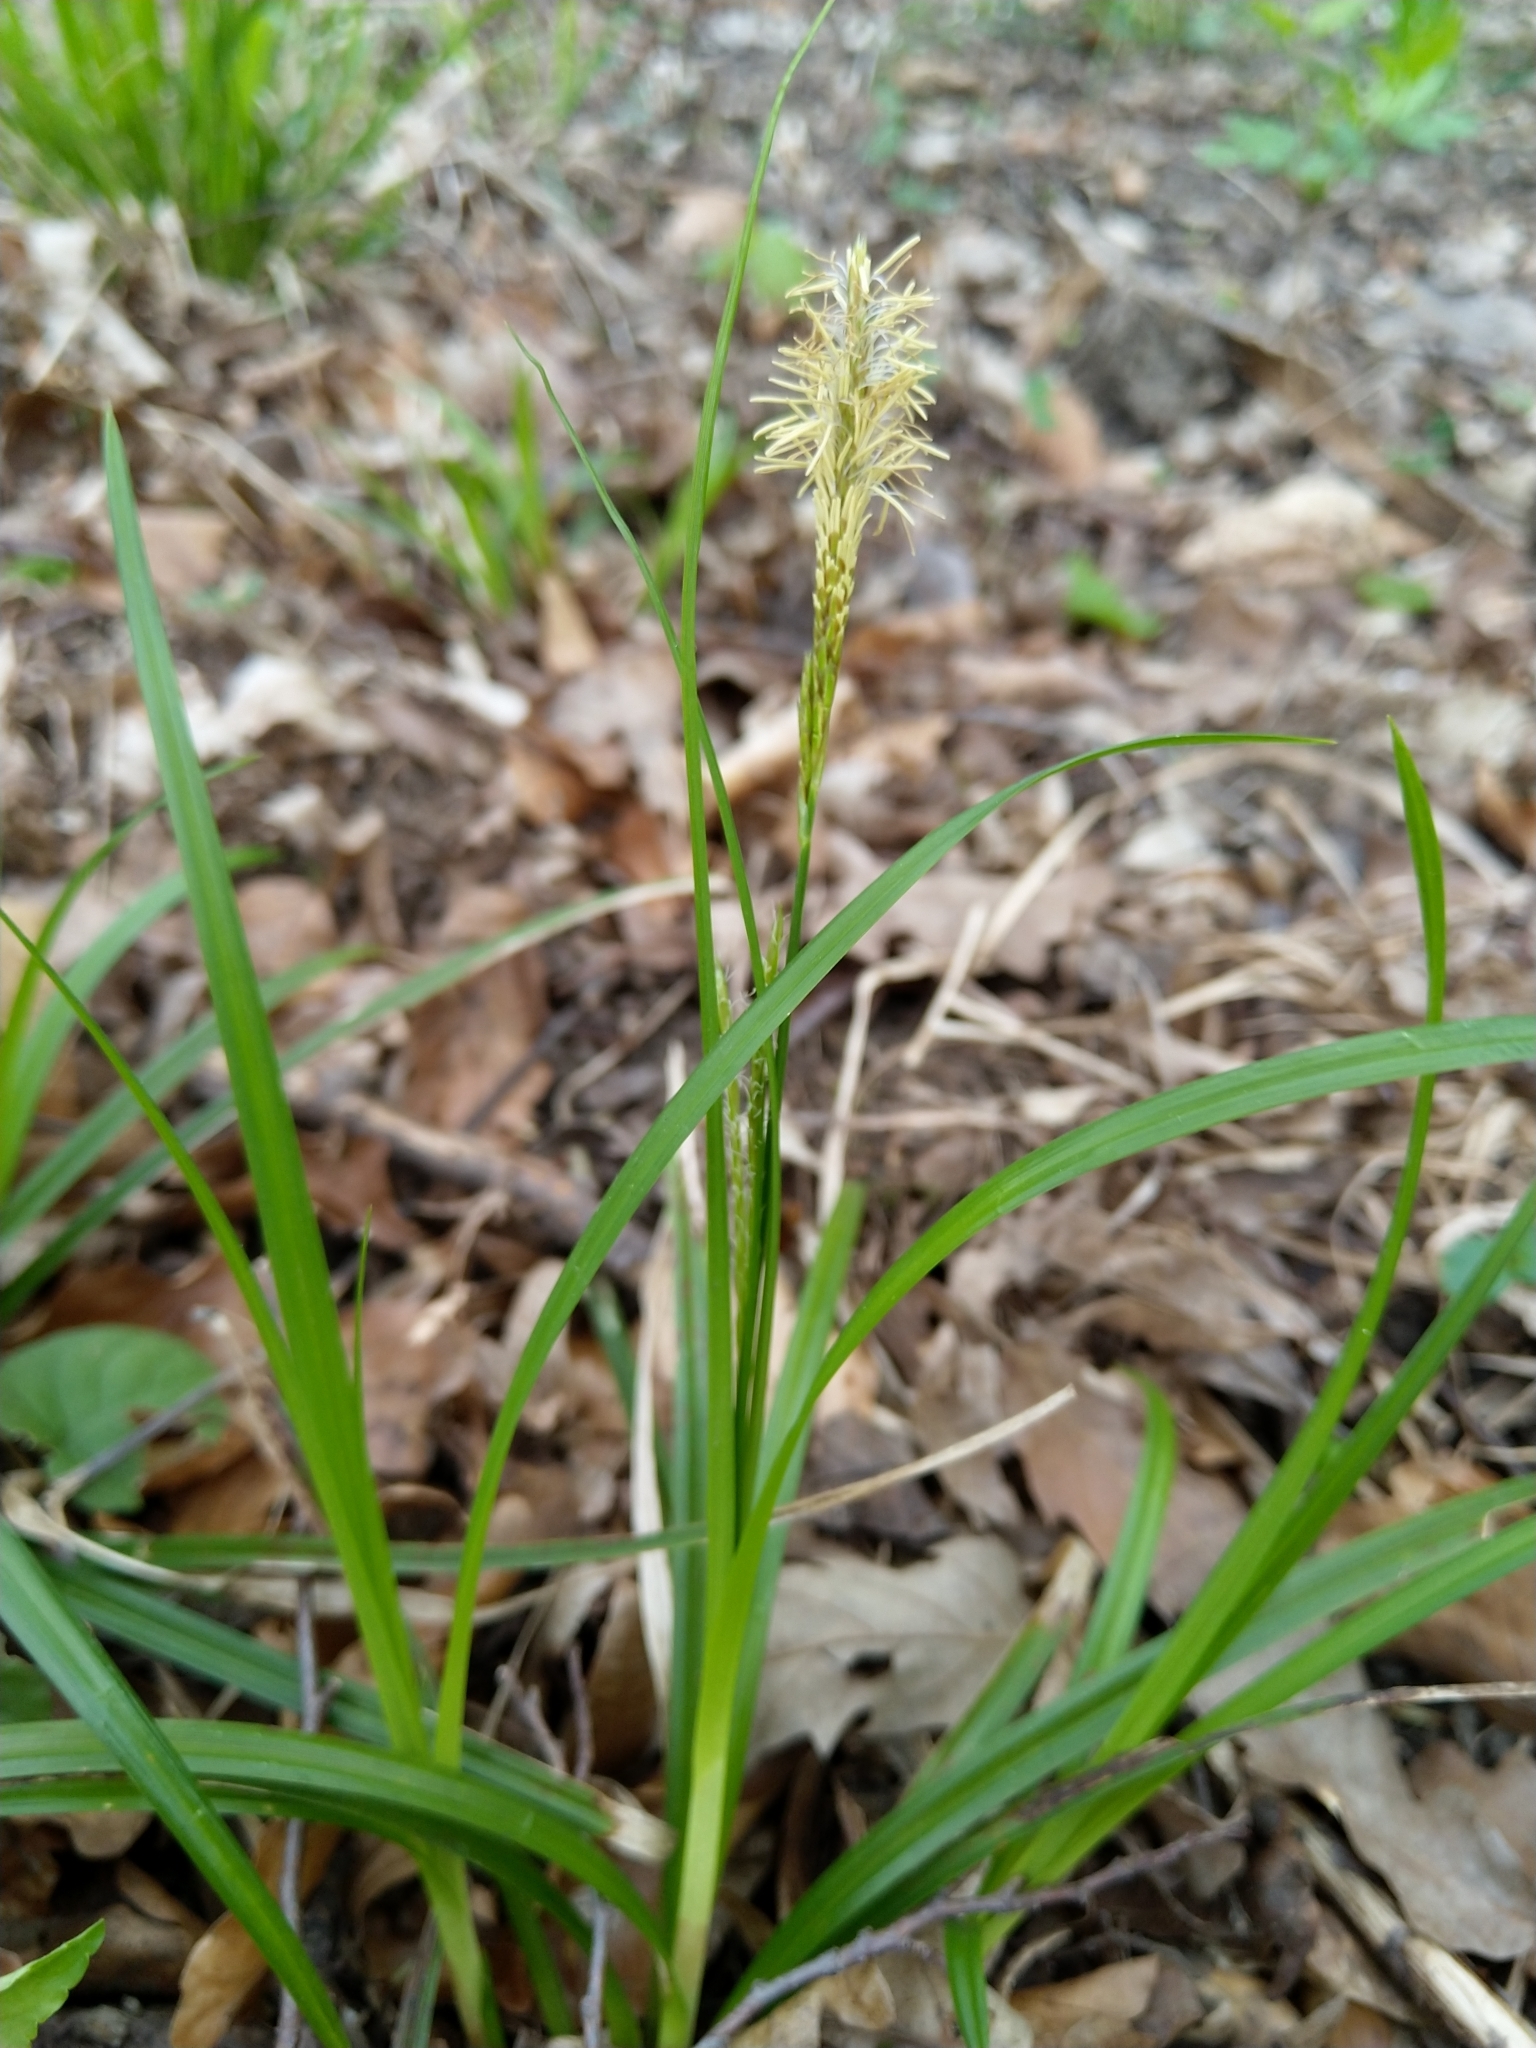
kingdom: Plantae
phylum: Tracheophyta
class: Liliopsida
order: Poales
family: Cyperaceae
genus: Carex
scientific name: Carex sylvatica
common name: Wood-sedge
